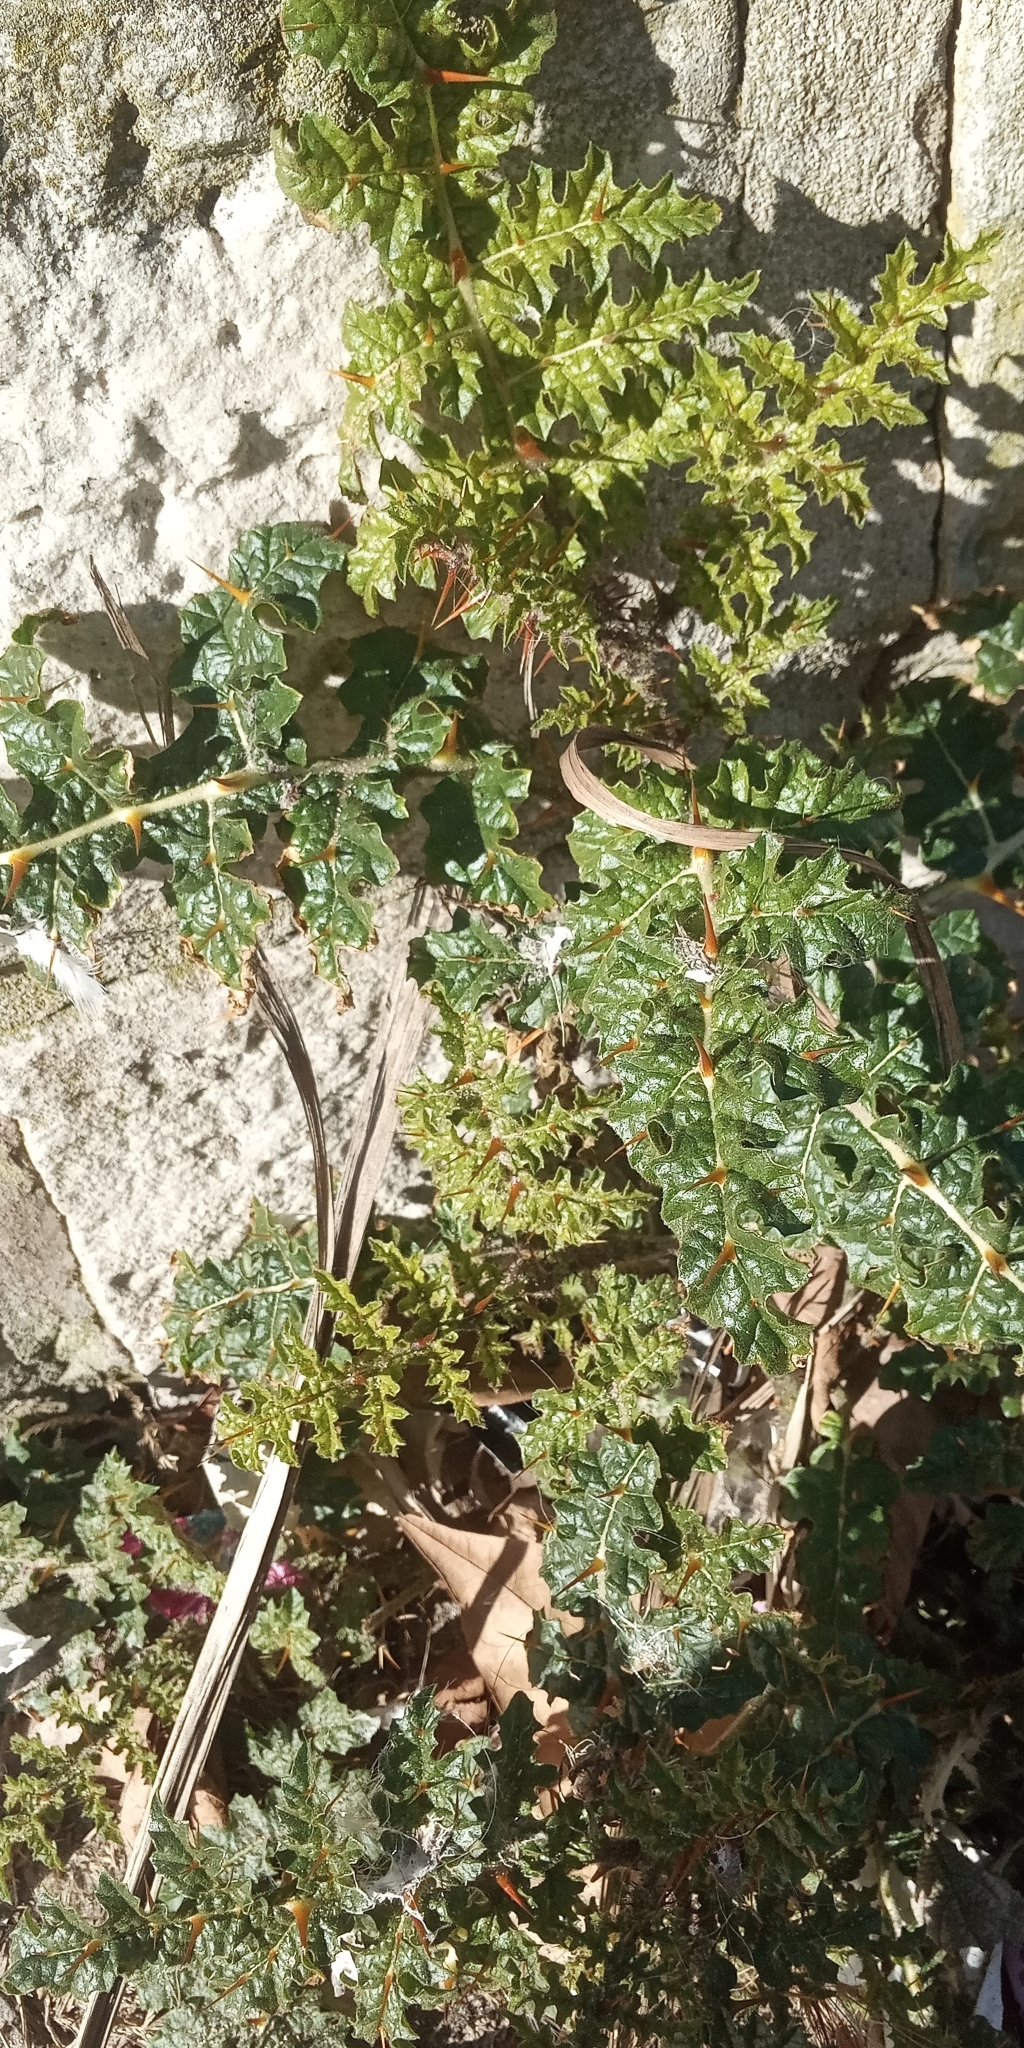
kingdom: Plantae
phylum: Tracheophyta
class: Magnoliopsida
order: Solanales
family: Solanaceae
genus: Solanum
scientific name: Solanum sisymbriifolium
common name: Red buffalo-bur
